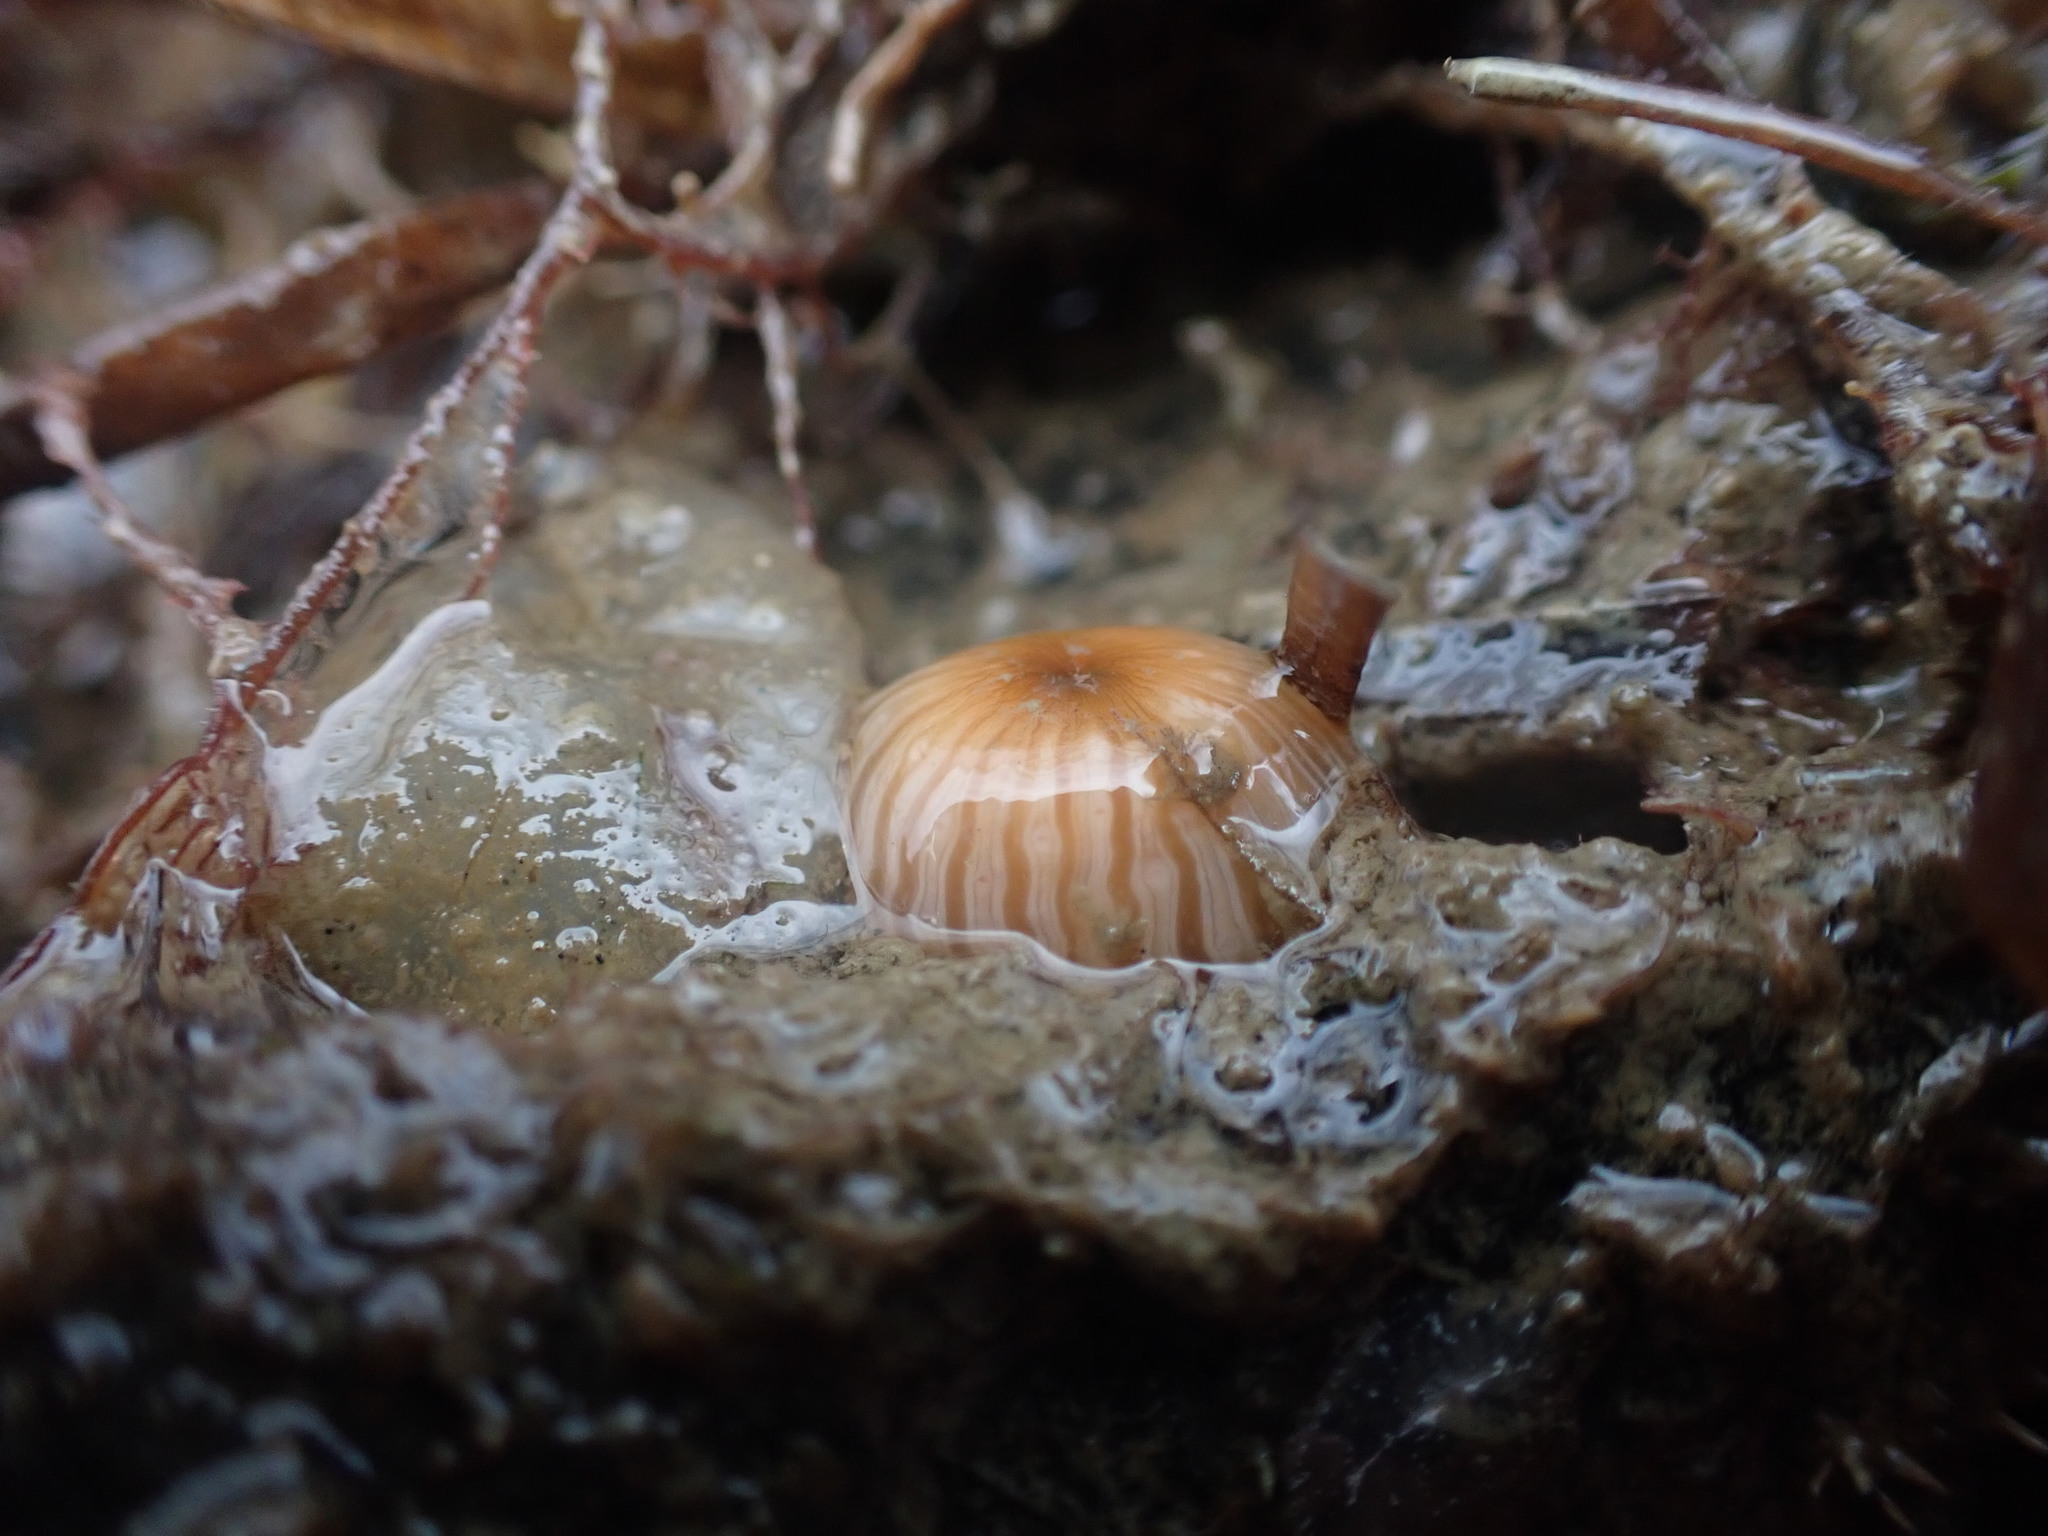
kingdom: Animalia
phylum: Cnidaria
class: Anthozoa
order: Actiniaria
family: Sagartiidae
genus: Anthothoe
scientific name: Anthothoe albocincta
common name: Orange striped anemone
